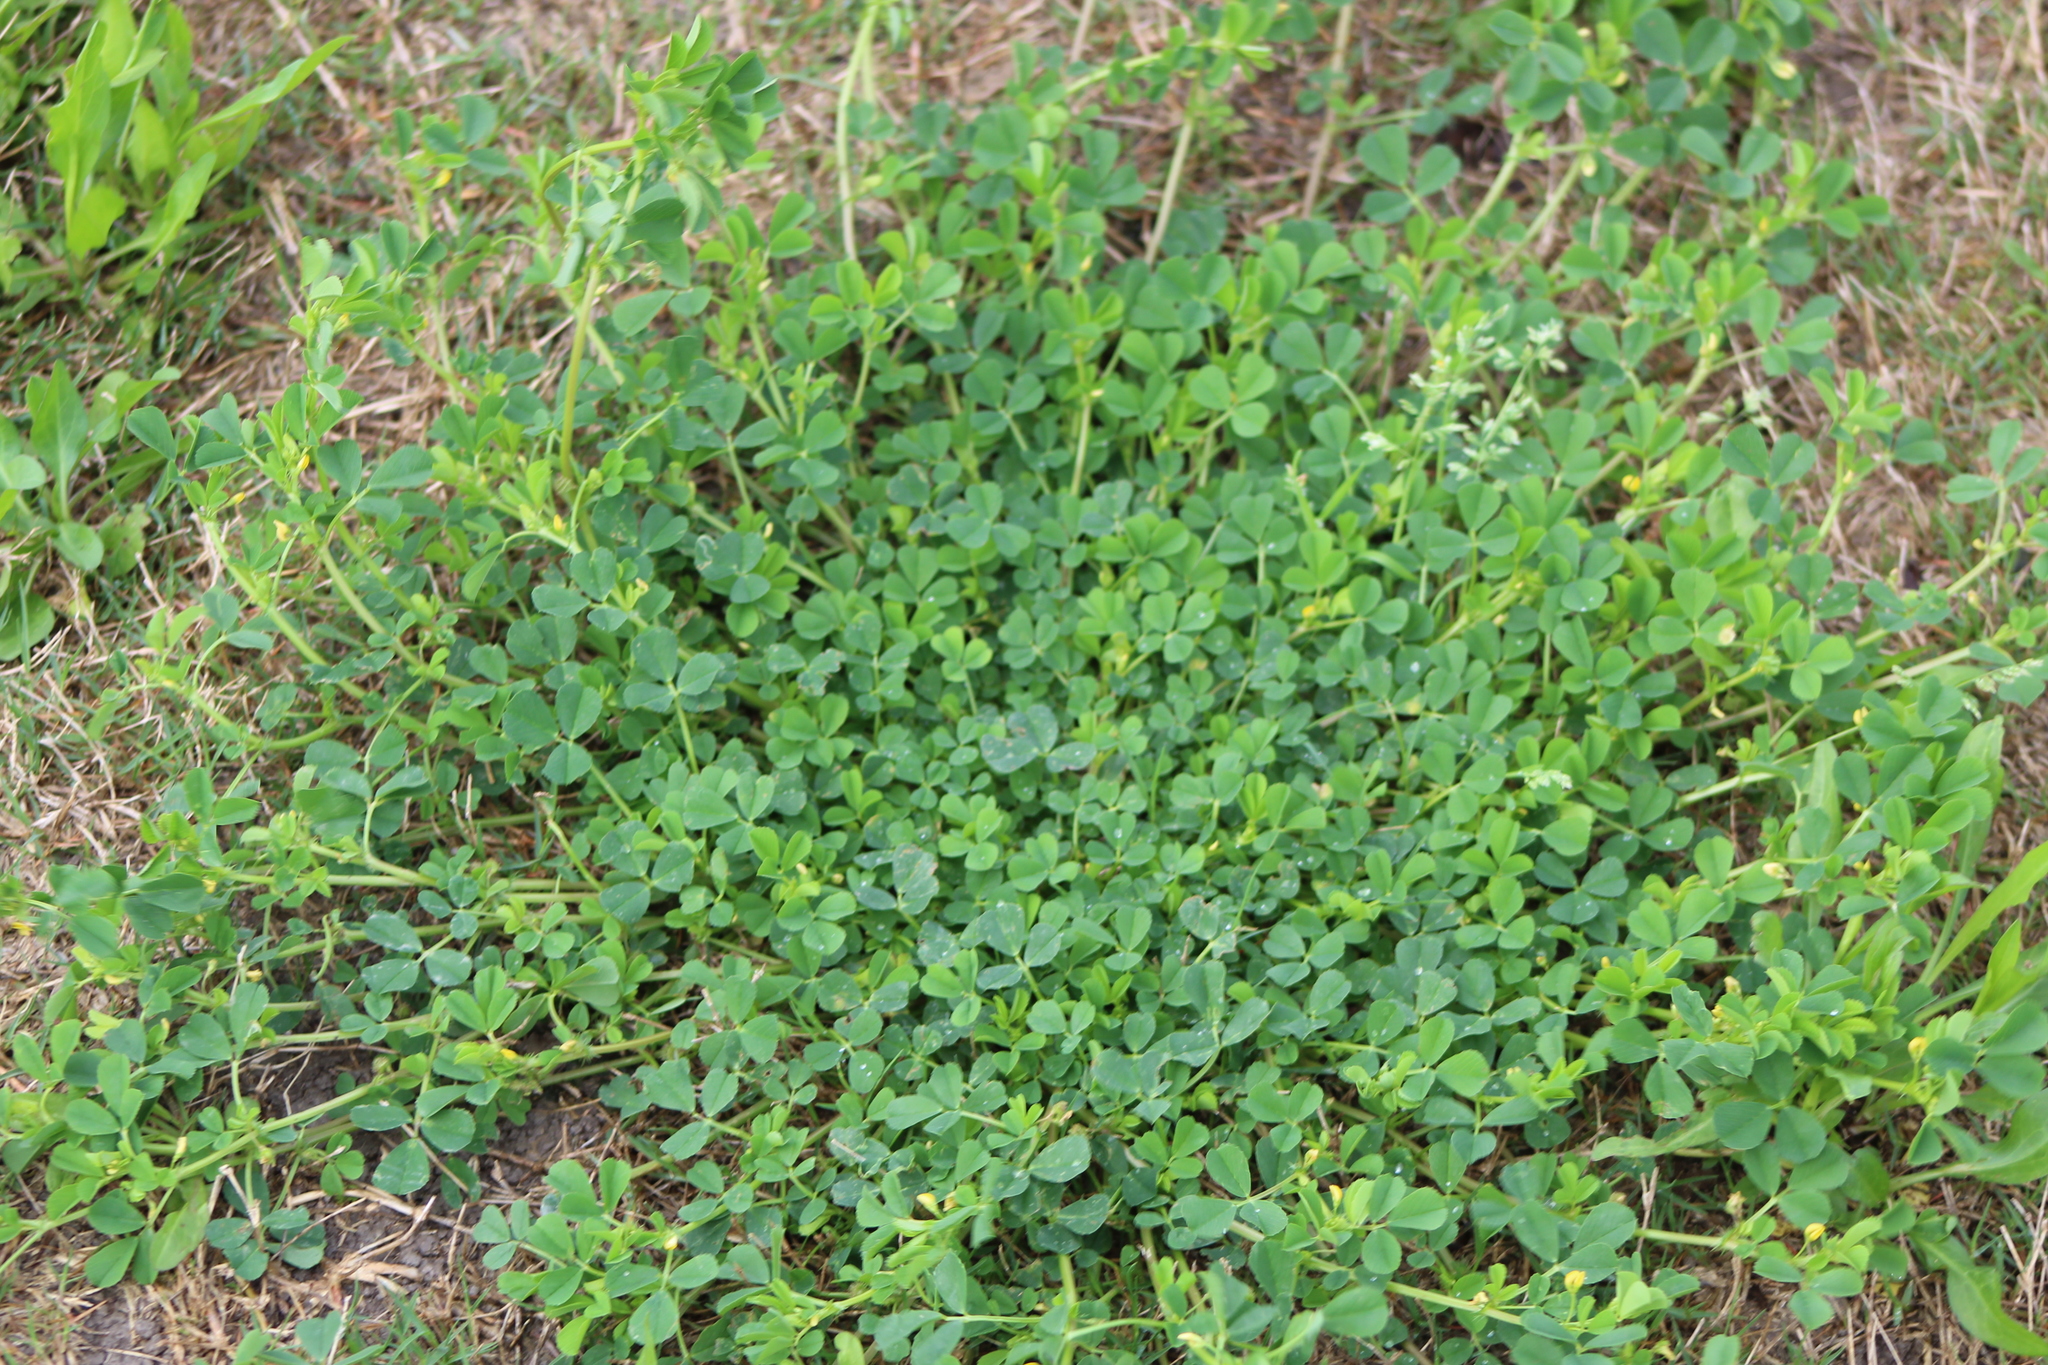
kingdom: Plantae
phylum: Tracheophyta
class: Magnoliopsida
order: Fabales
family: Fabaceae
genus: Medicago
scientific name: Medicago polymorpha
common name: Burclover
